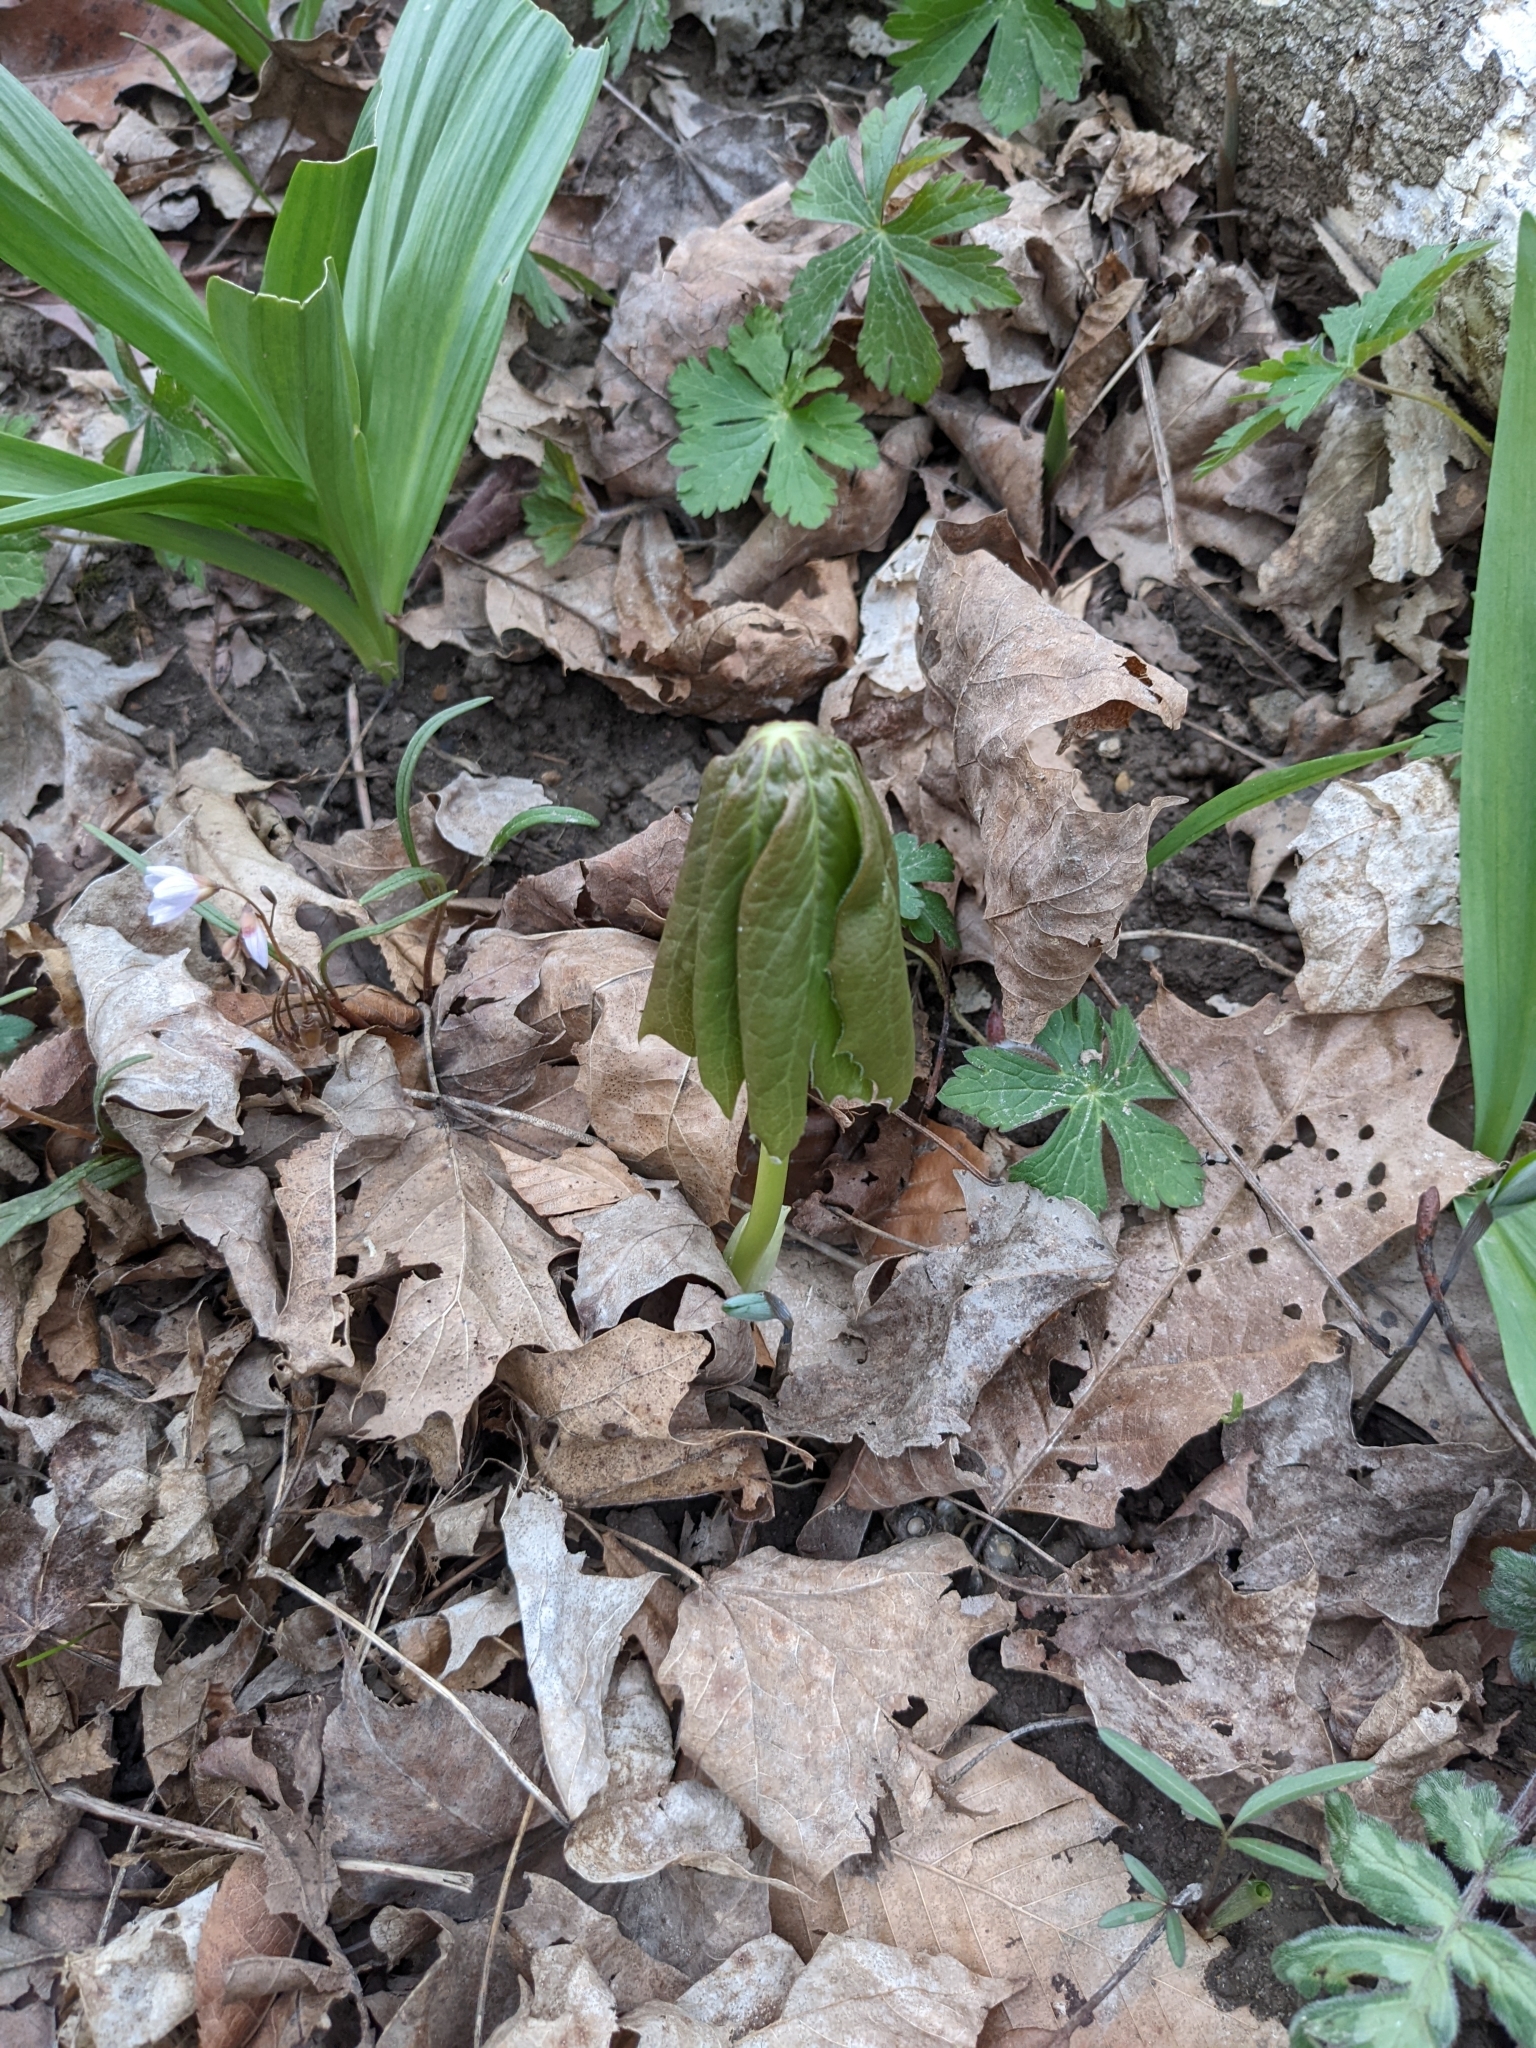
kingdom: Plantae
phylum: Tracheophyta
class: Magnoliopsida
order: Ranunculales
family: Berberidaceae
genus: Podophyllum
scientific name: Podophyllum peltatum
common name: Wild mandrake
